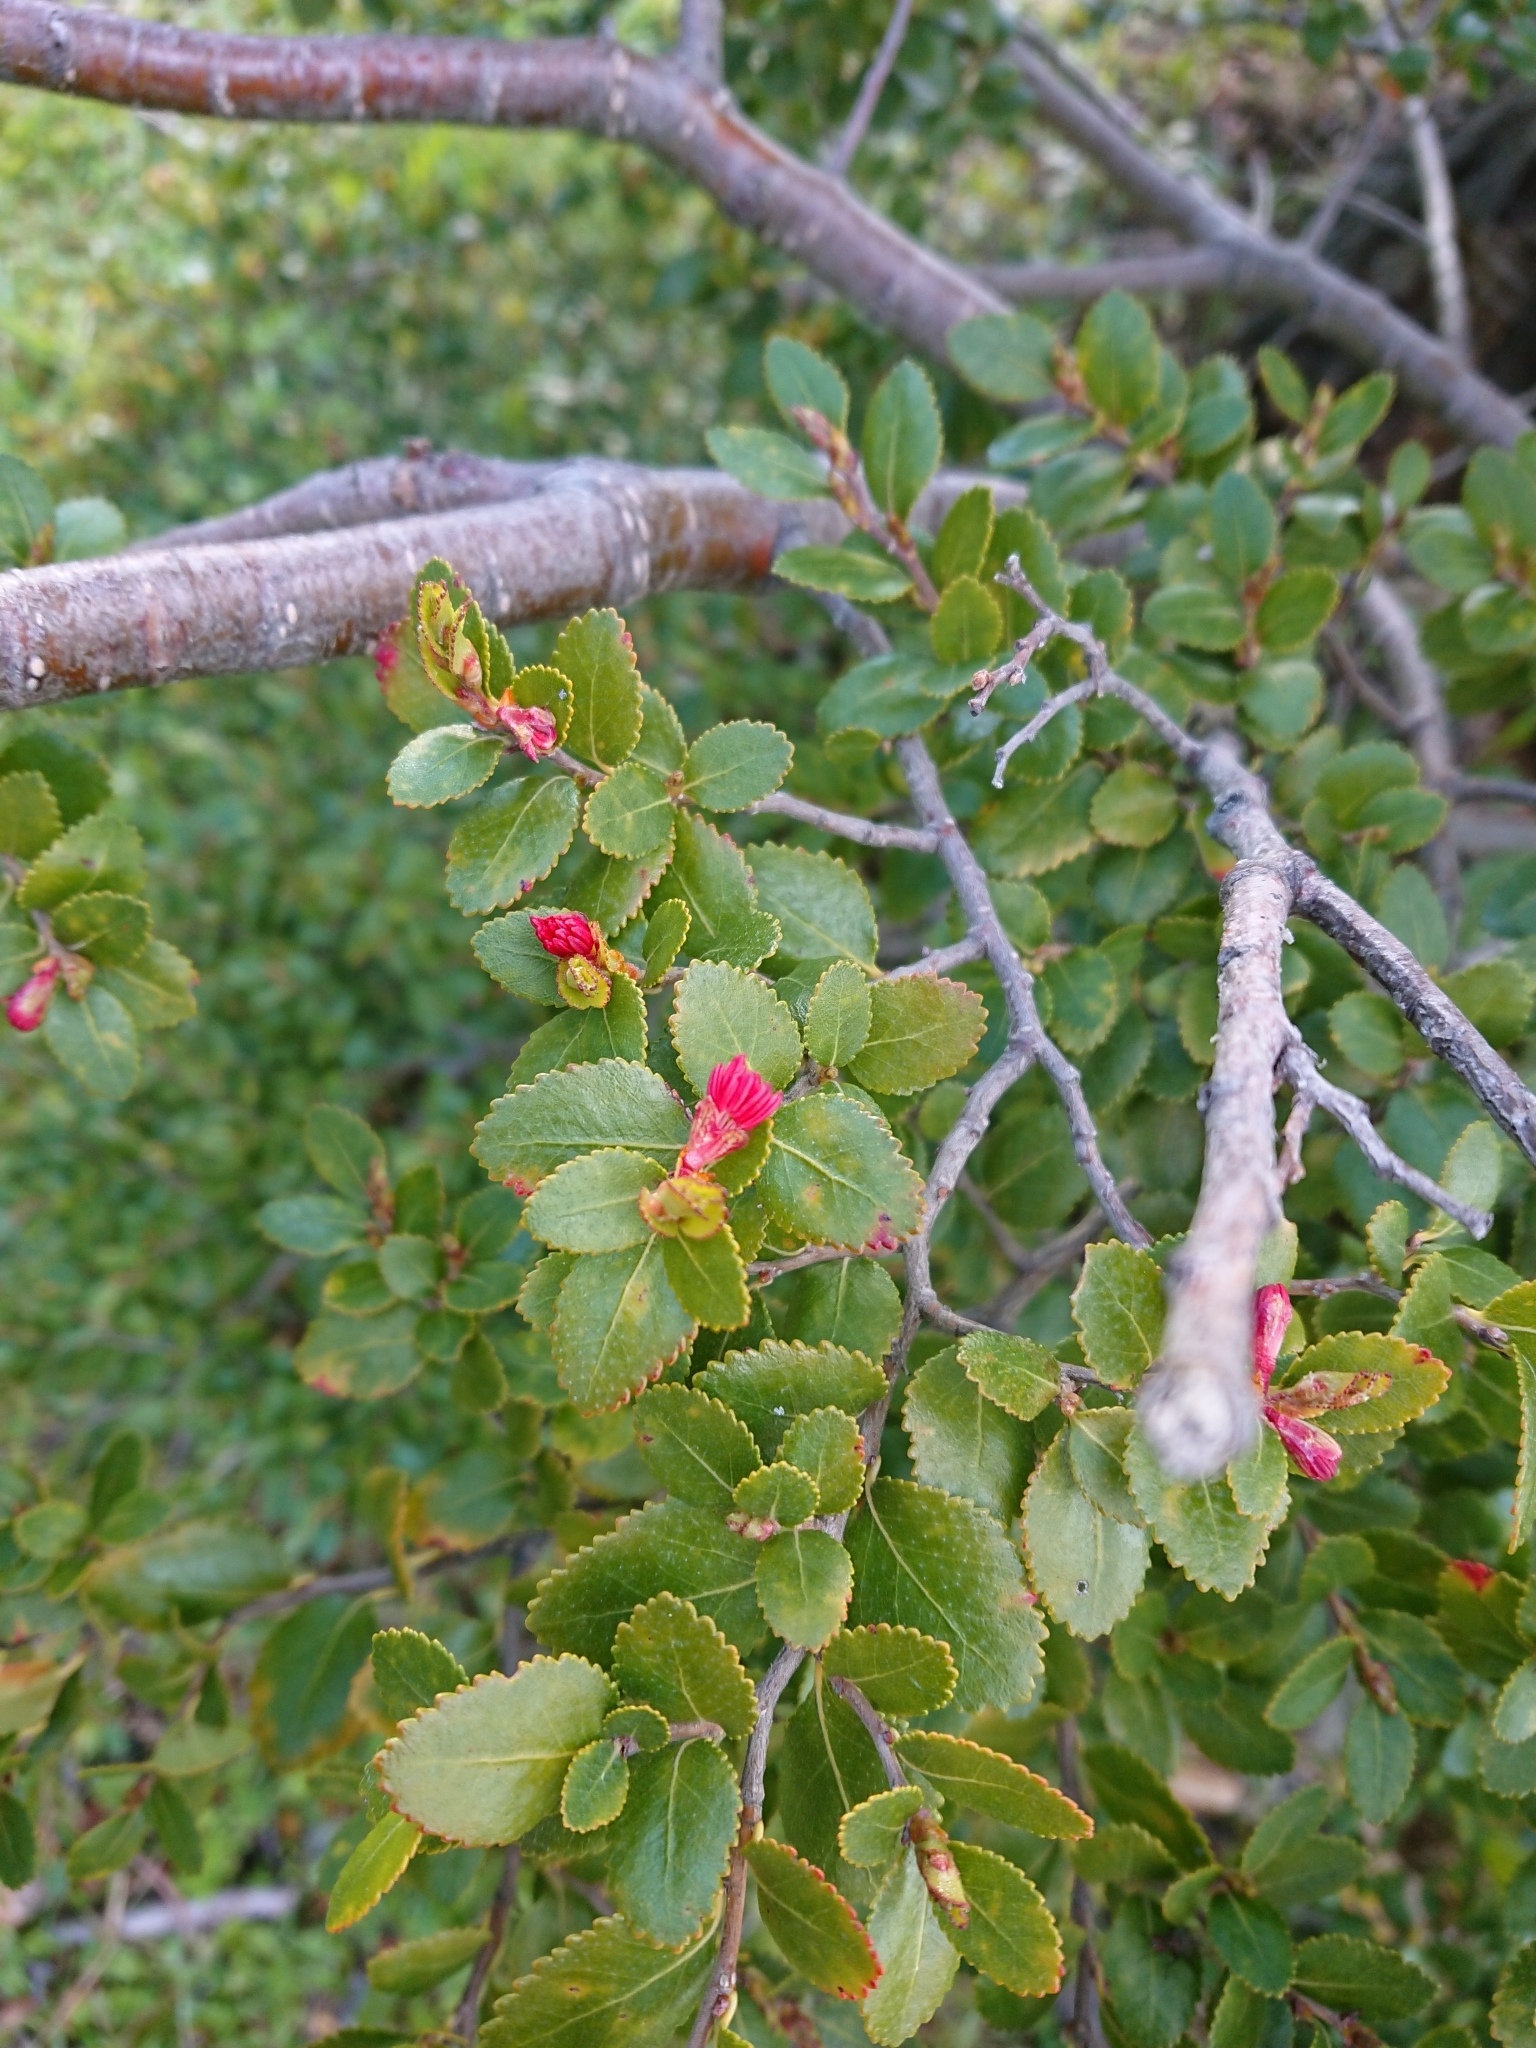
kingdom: Plantae
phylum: Tracheophyta
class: Magnoliopsida
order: Fagales
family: Nothofagaceae
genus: Nothofagus
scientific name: Nothofagus betuloides
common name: Magellan's beech
